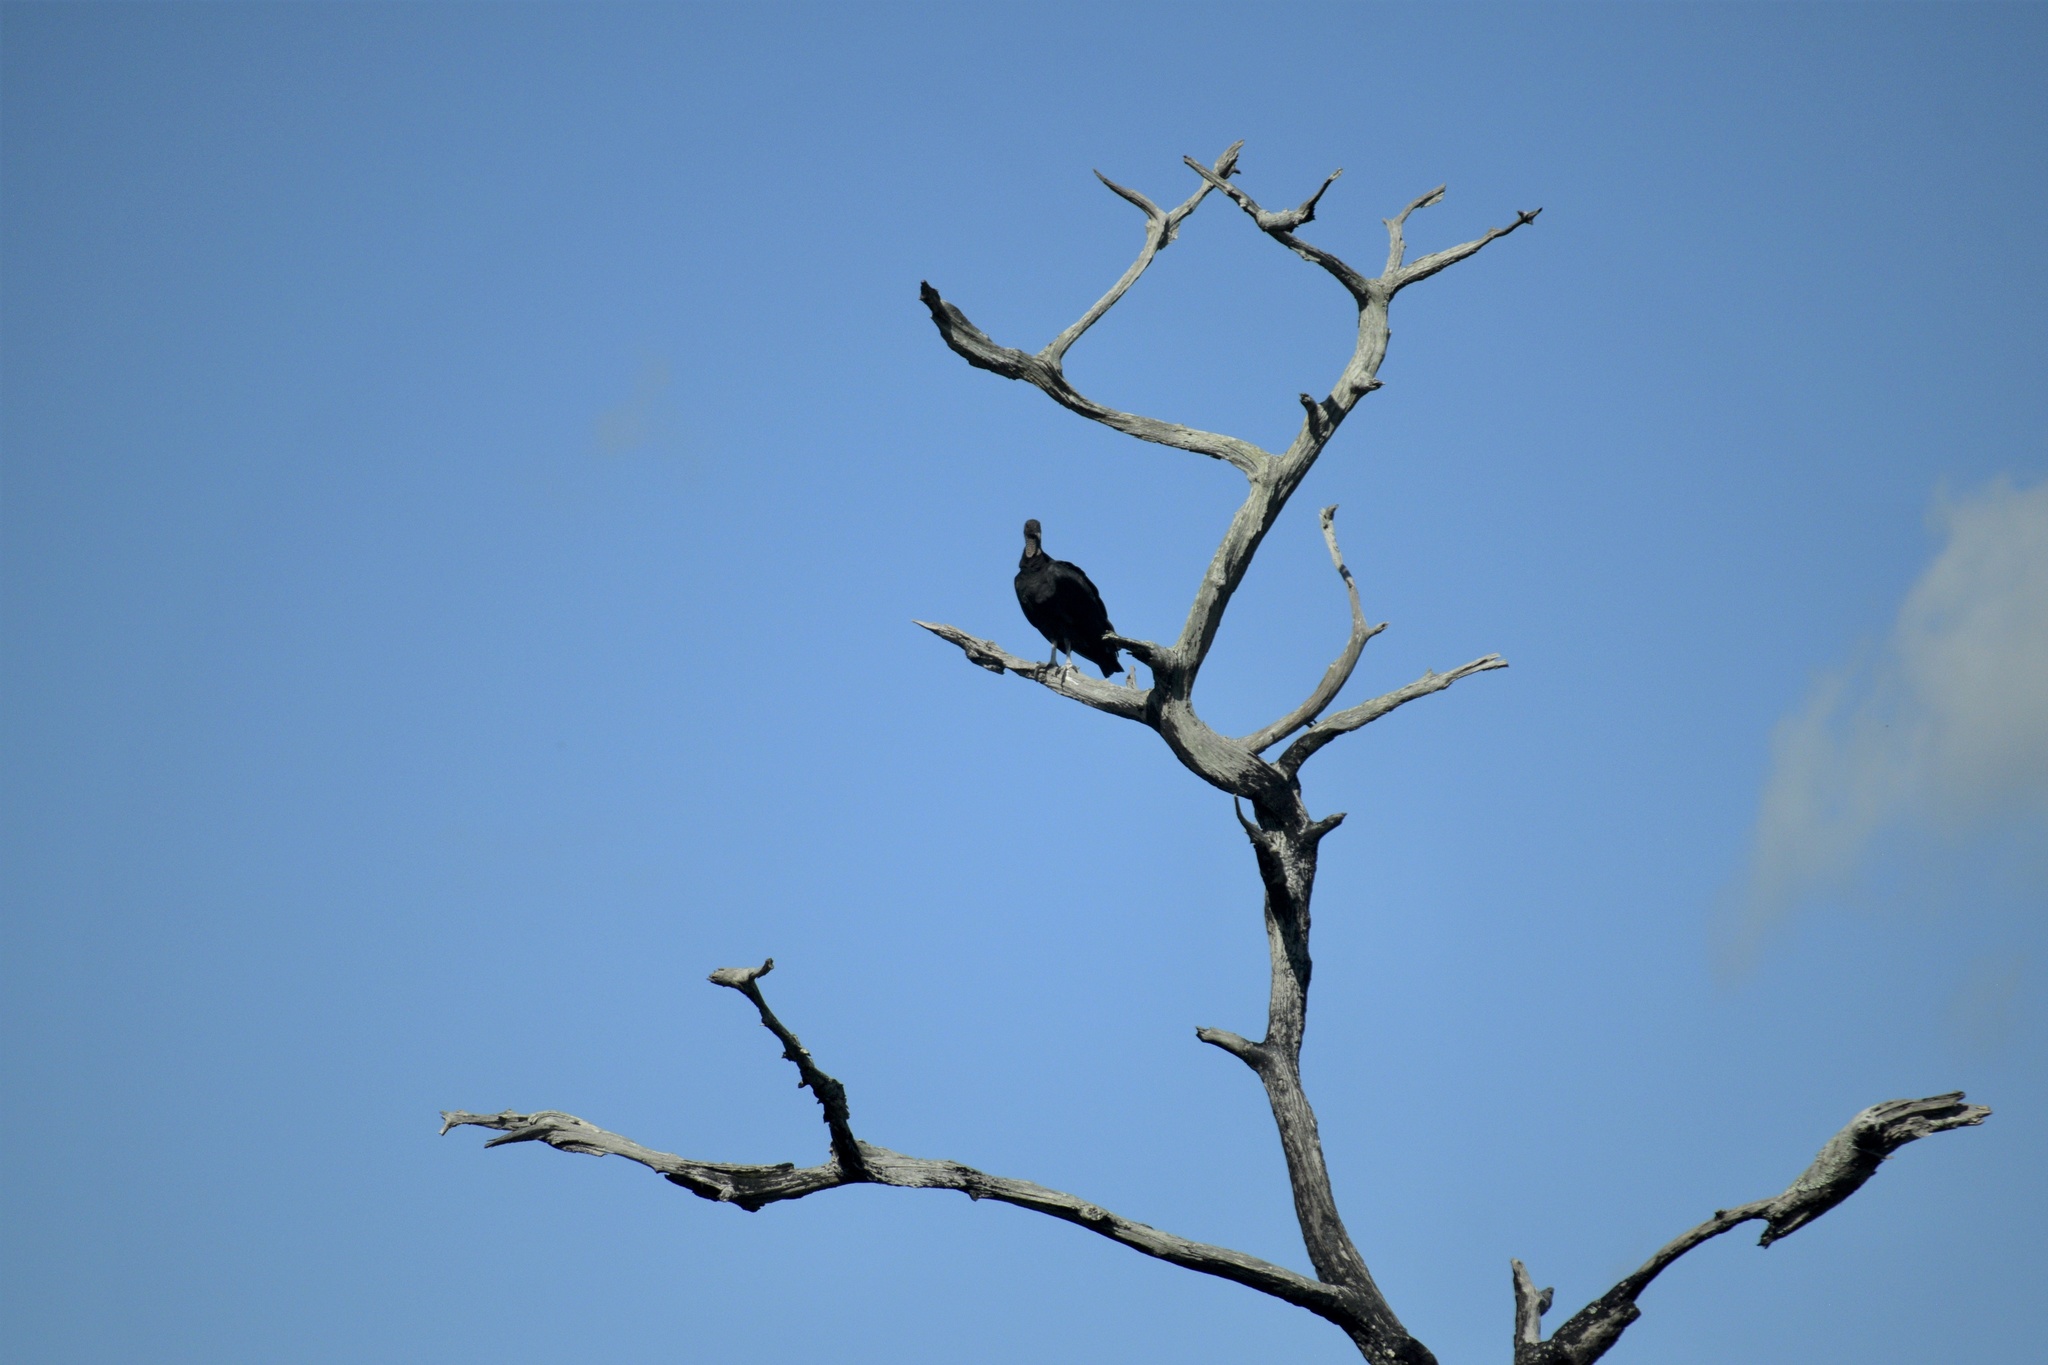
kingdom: Animalia
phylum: Chordata
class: Aves
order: Accipitriformes
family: Cathartidae
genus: Coragyps
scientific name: Coragyps atratus
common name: Black vulture
